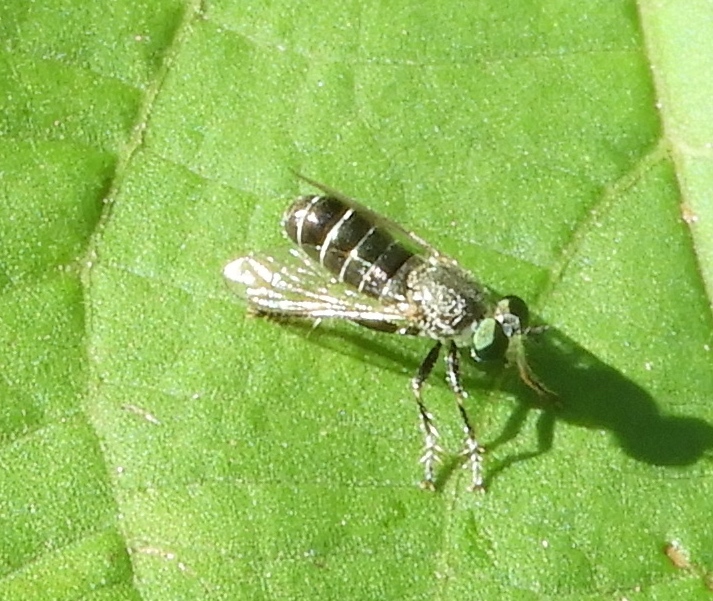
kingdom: Animalia
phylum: Arthropoda
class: Insecta
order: Diptera
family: Asilidae
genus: Atomosia
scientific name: Atomosia
